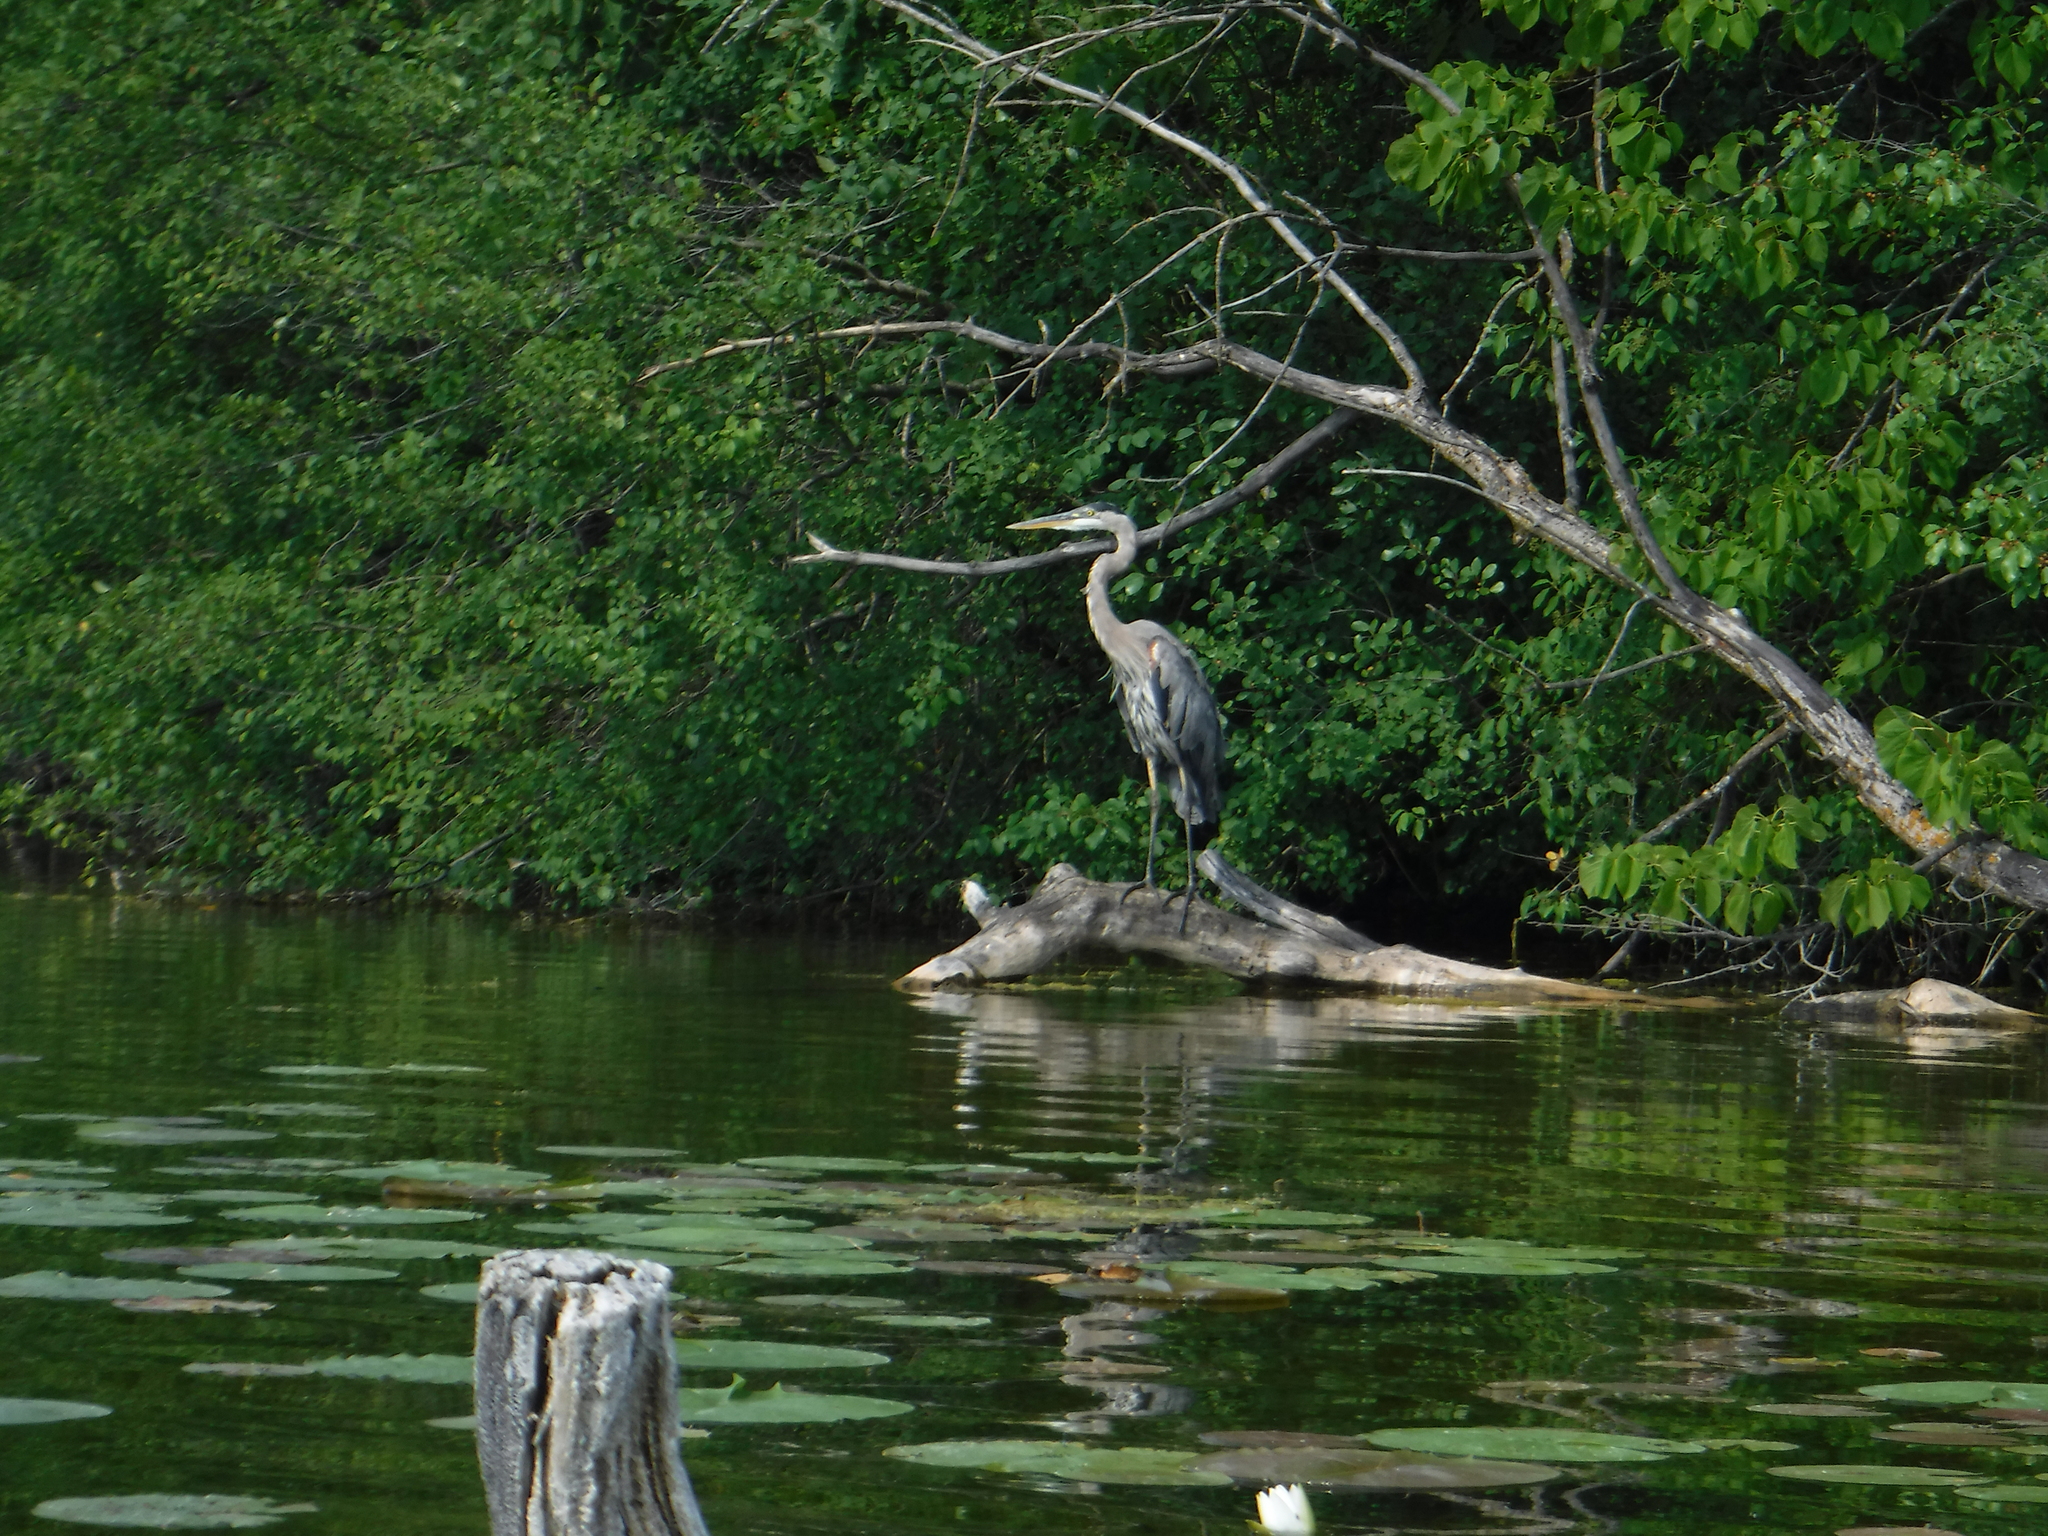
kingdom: Animalia
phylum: Chordata
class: Aves
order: Pelecaniformes
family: Ardeidae
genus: Ardea
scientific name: Ardea herodias
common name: Great blue heron
